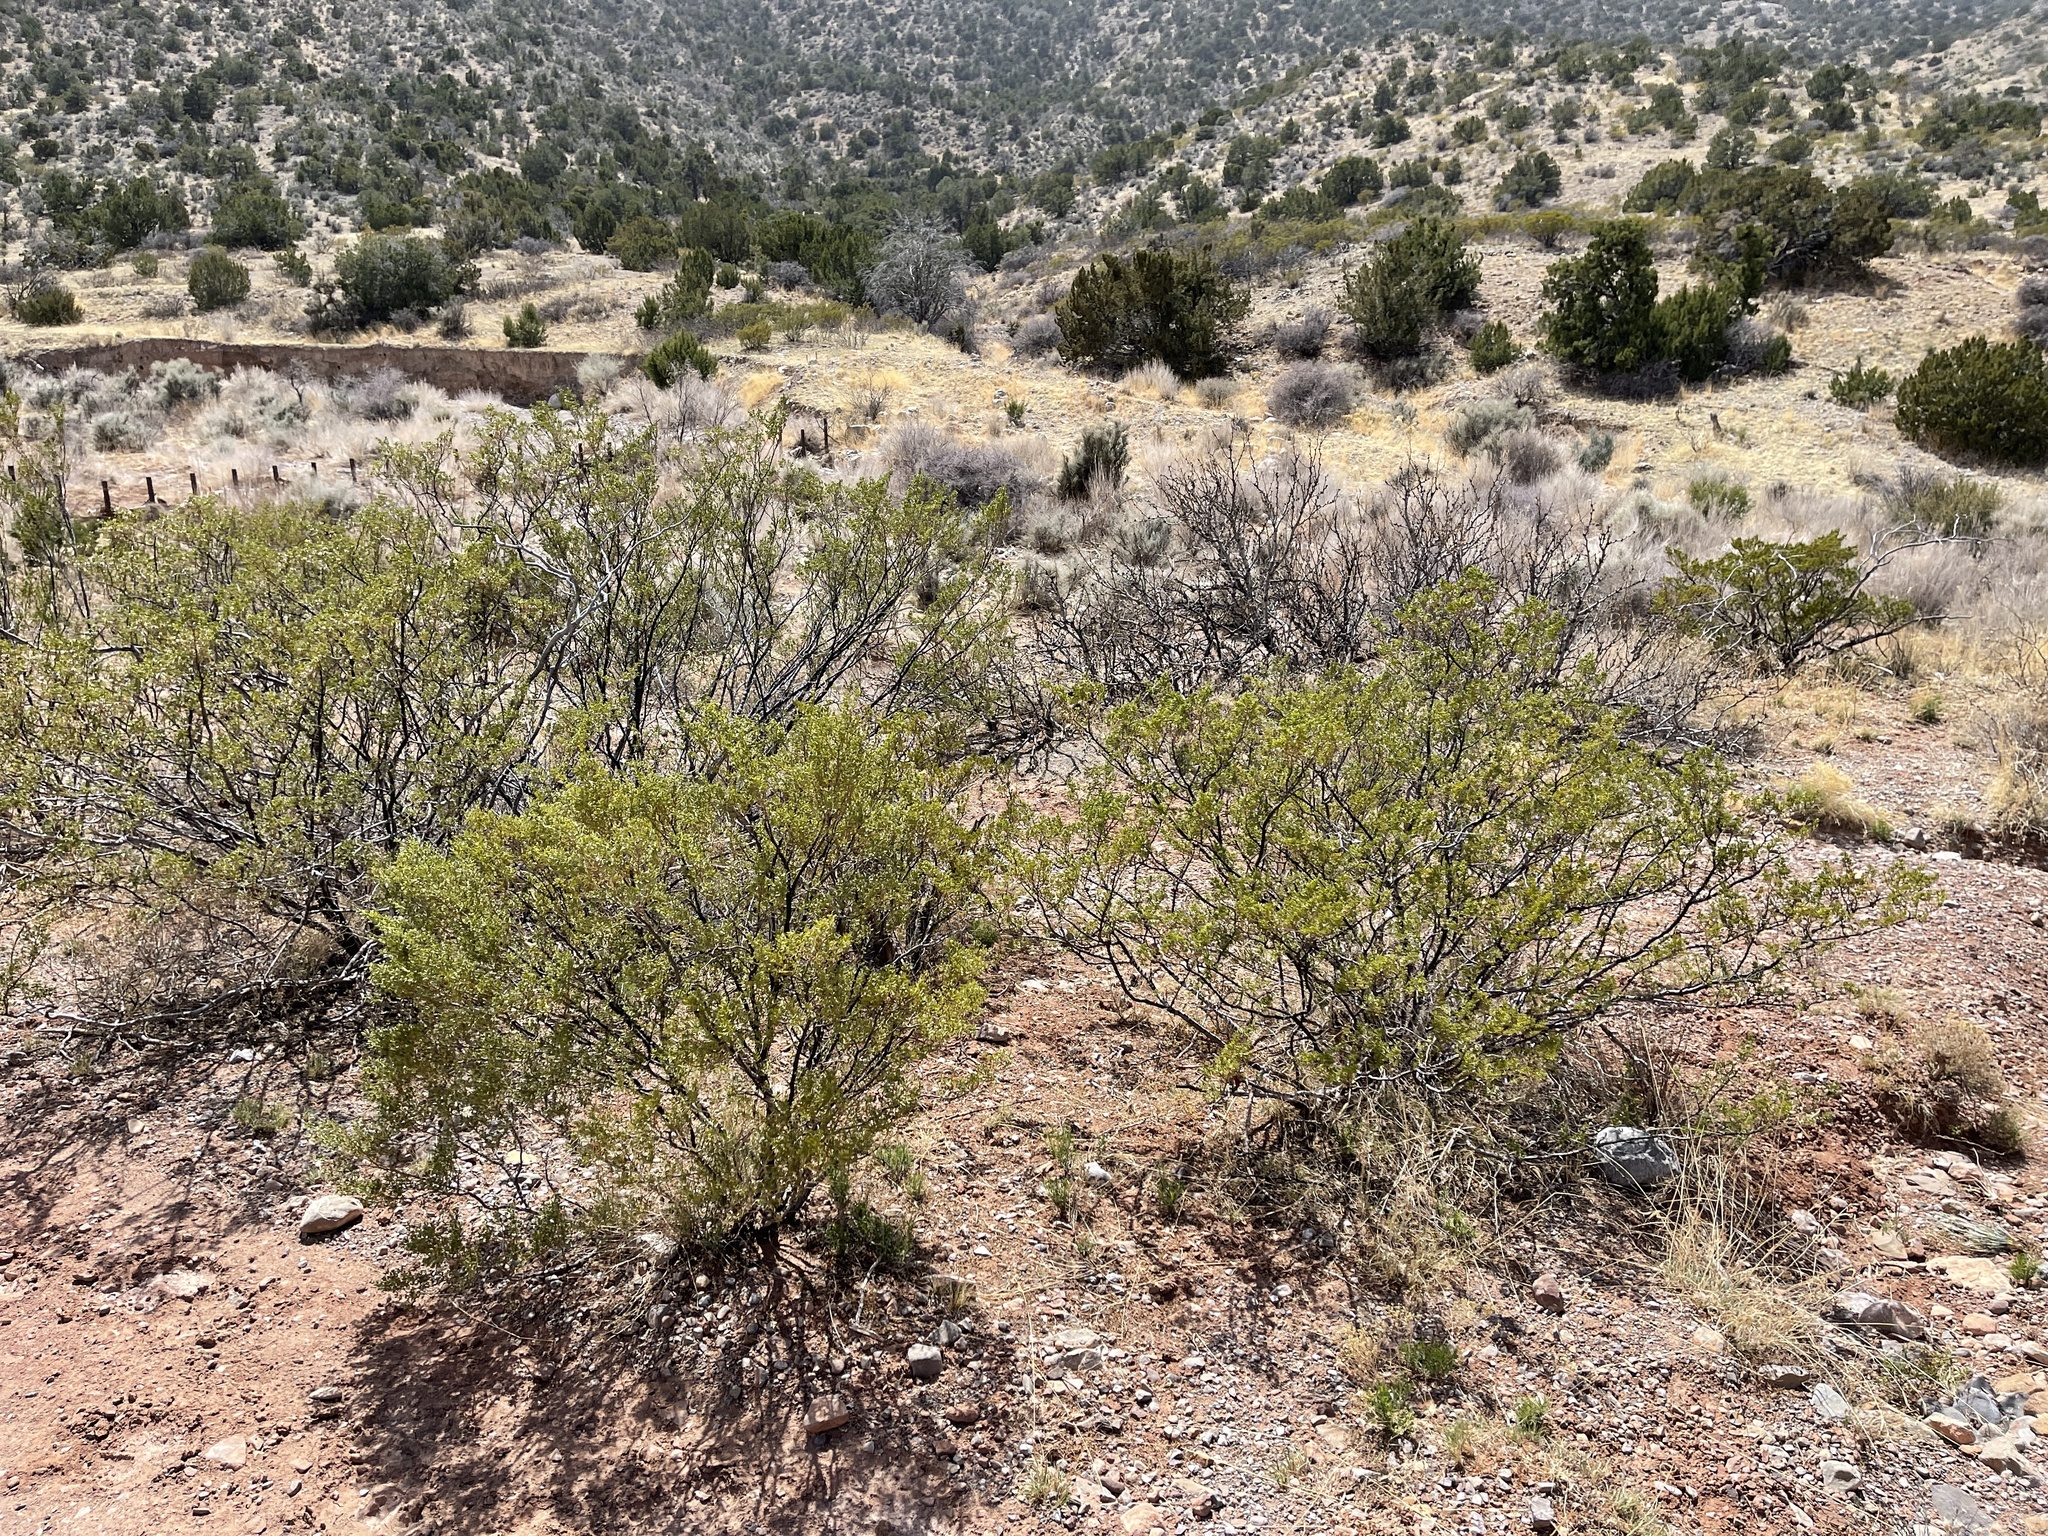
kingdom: Plantae
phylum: Tracheophyta
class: Magnoliopsida
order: Zygophyllales
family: Zygophyllaceae
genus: Larrea
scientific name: Larrea tridentata
